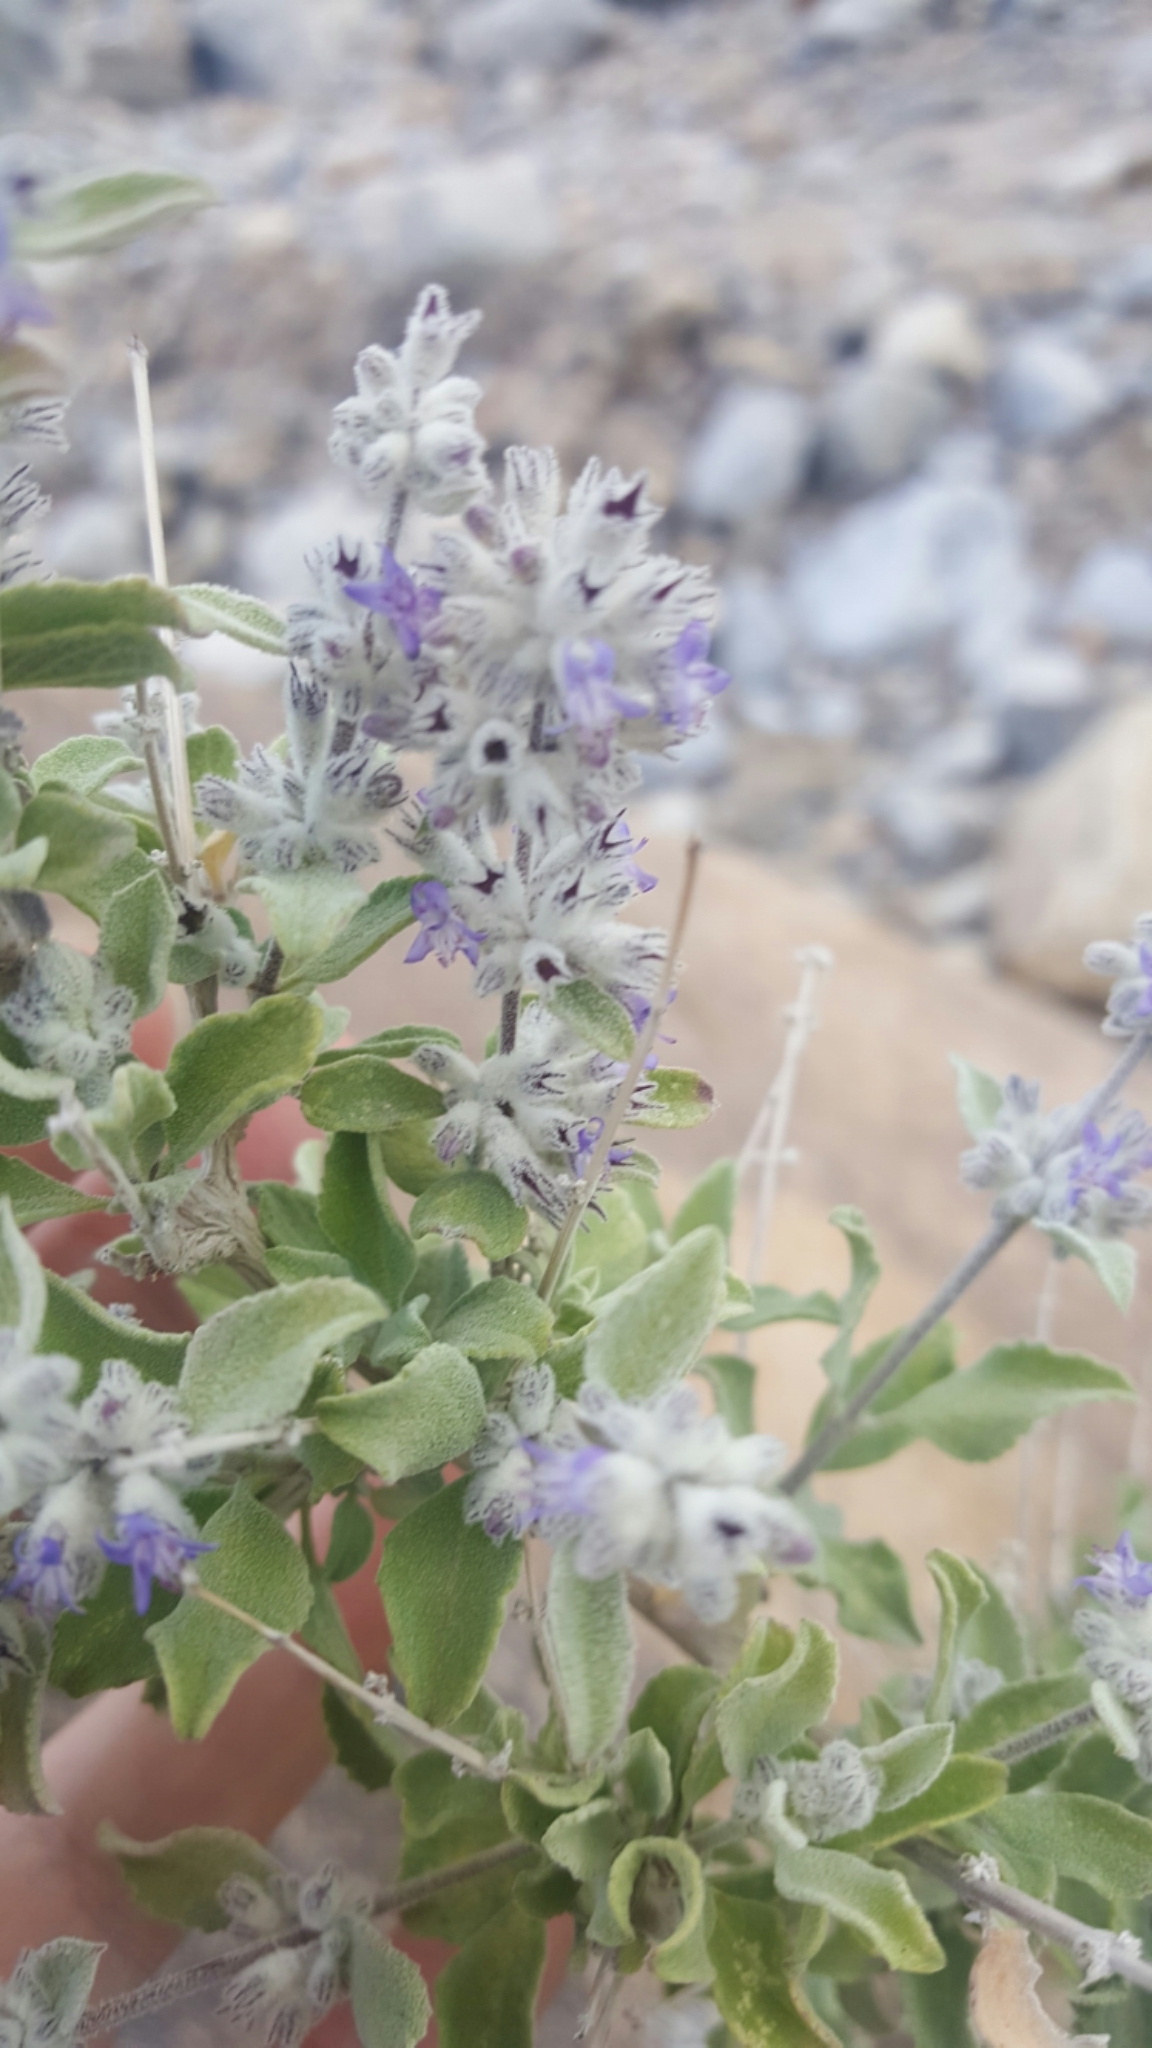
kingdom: Plantae
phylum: Tracheophyta
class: Magnoliopsida
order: Lamiales
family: Lamiaceae
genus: Condea
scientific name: Condea emoryi
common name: Chia
